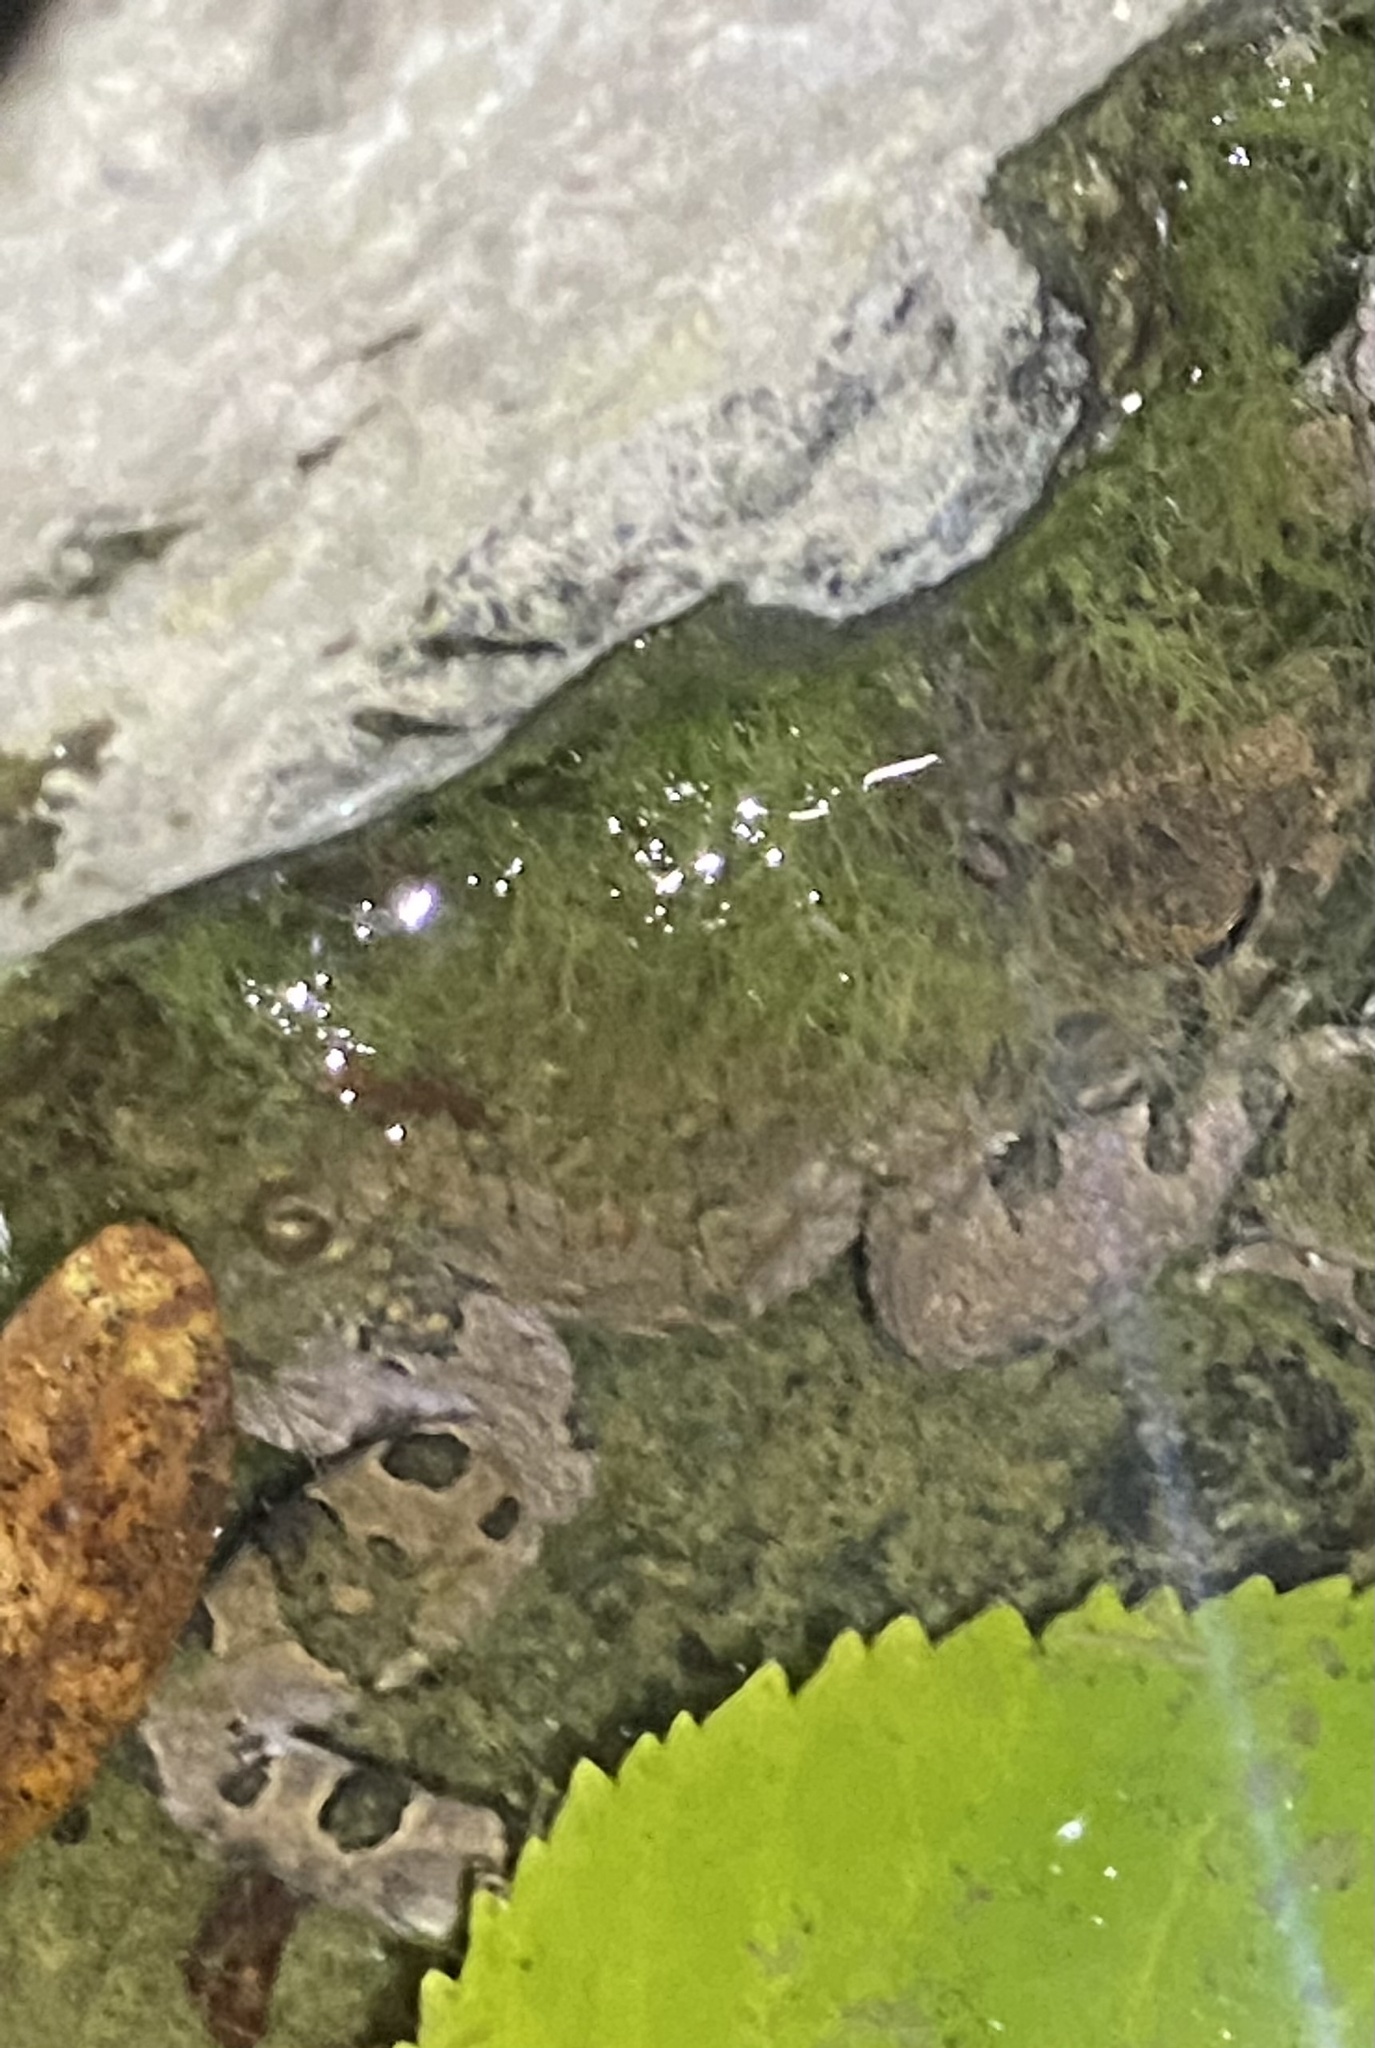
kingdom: Animalia
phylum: Chordata
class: Amphibia
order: Anura
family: Bufonidae
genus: Bufotes
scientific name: Bufotes viridis
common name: European green toad
